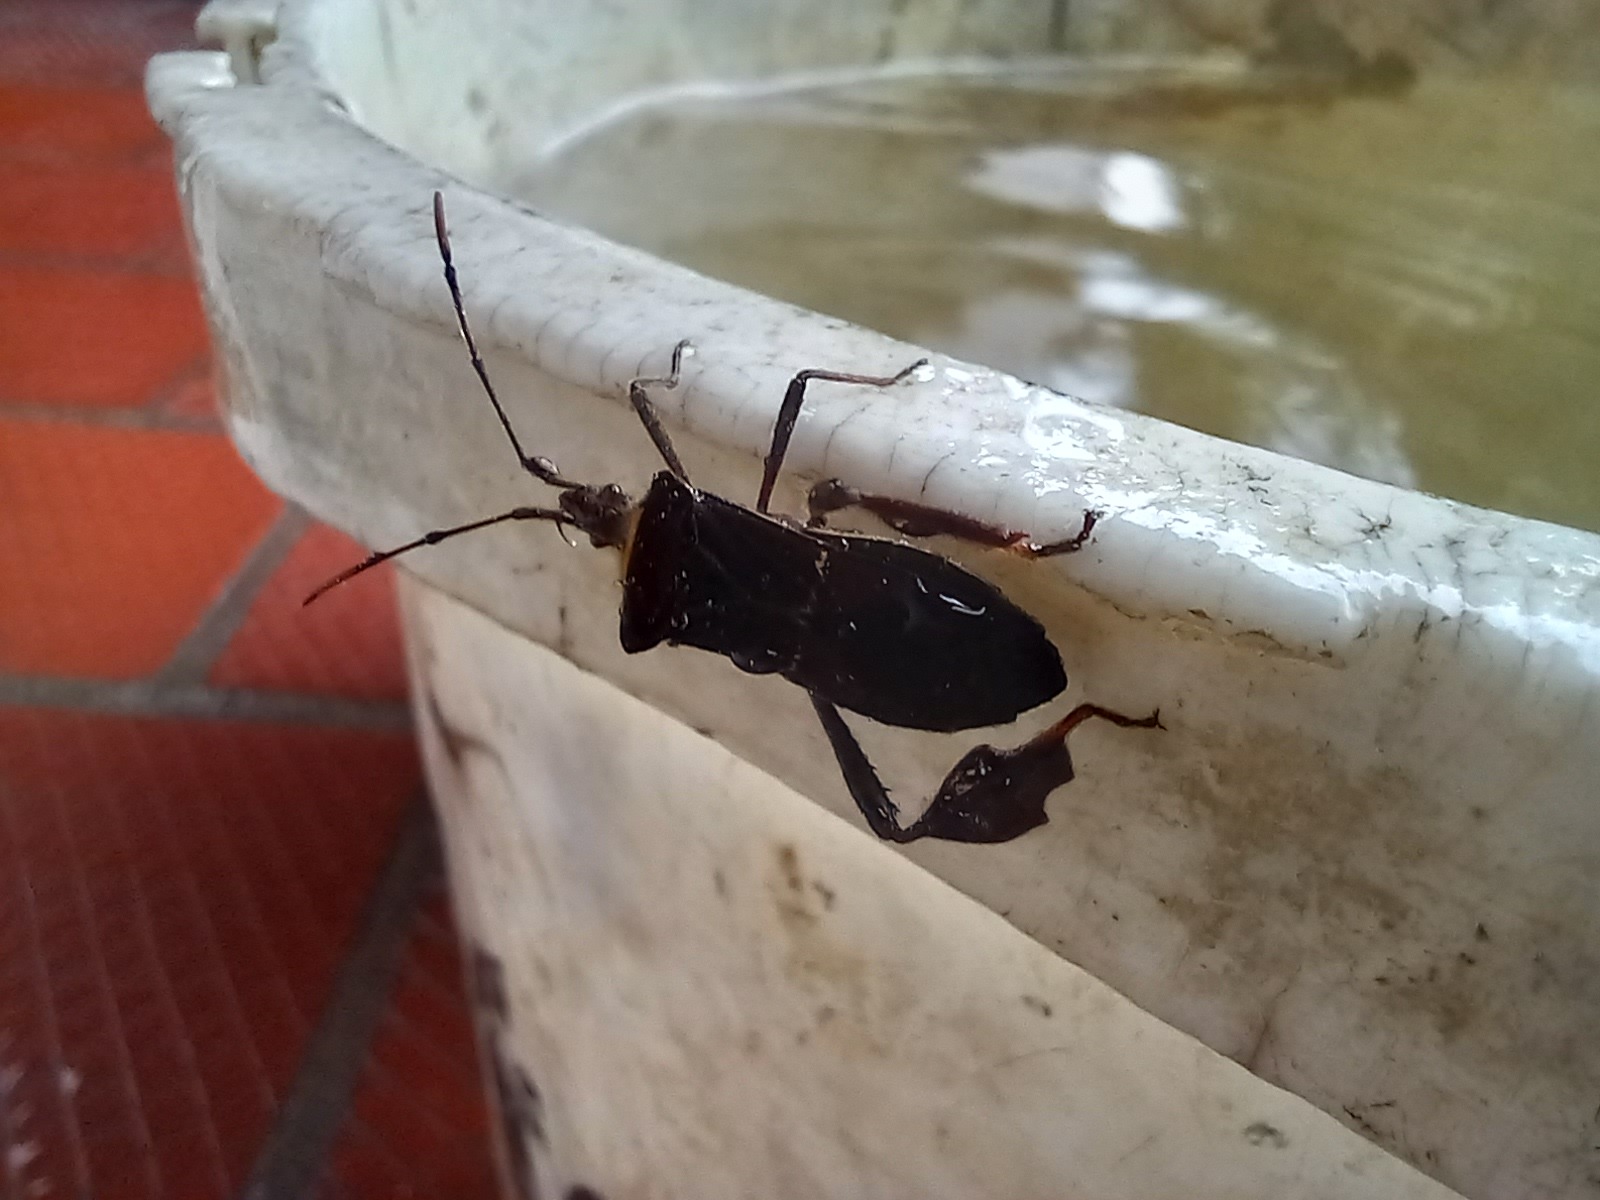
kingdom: Animalia
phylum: Arthropoda
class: Insecta
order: Hemiptera
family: Coreidae
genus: Leptoglossus
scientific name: Leptoglossus macrophyllus
